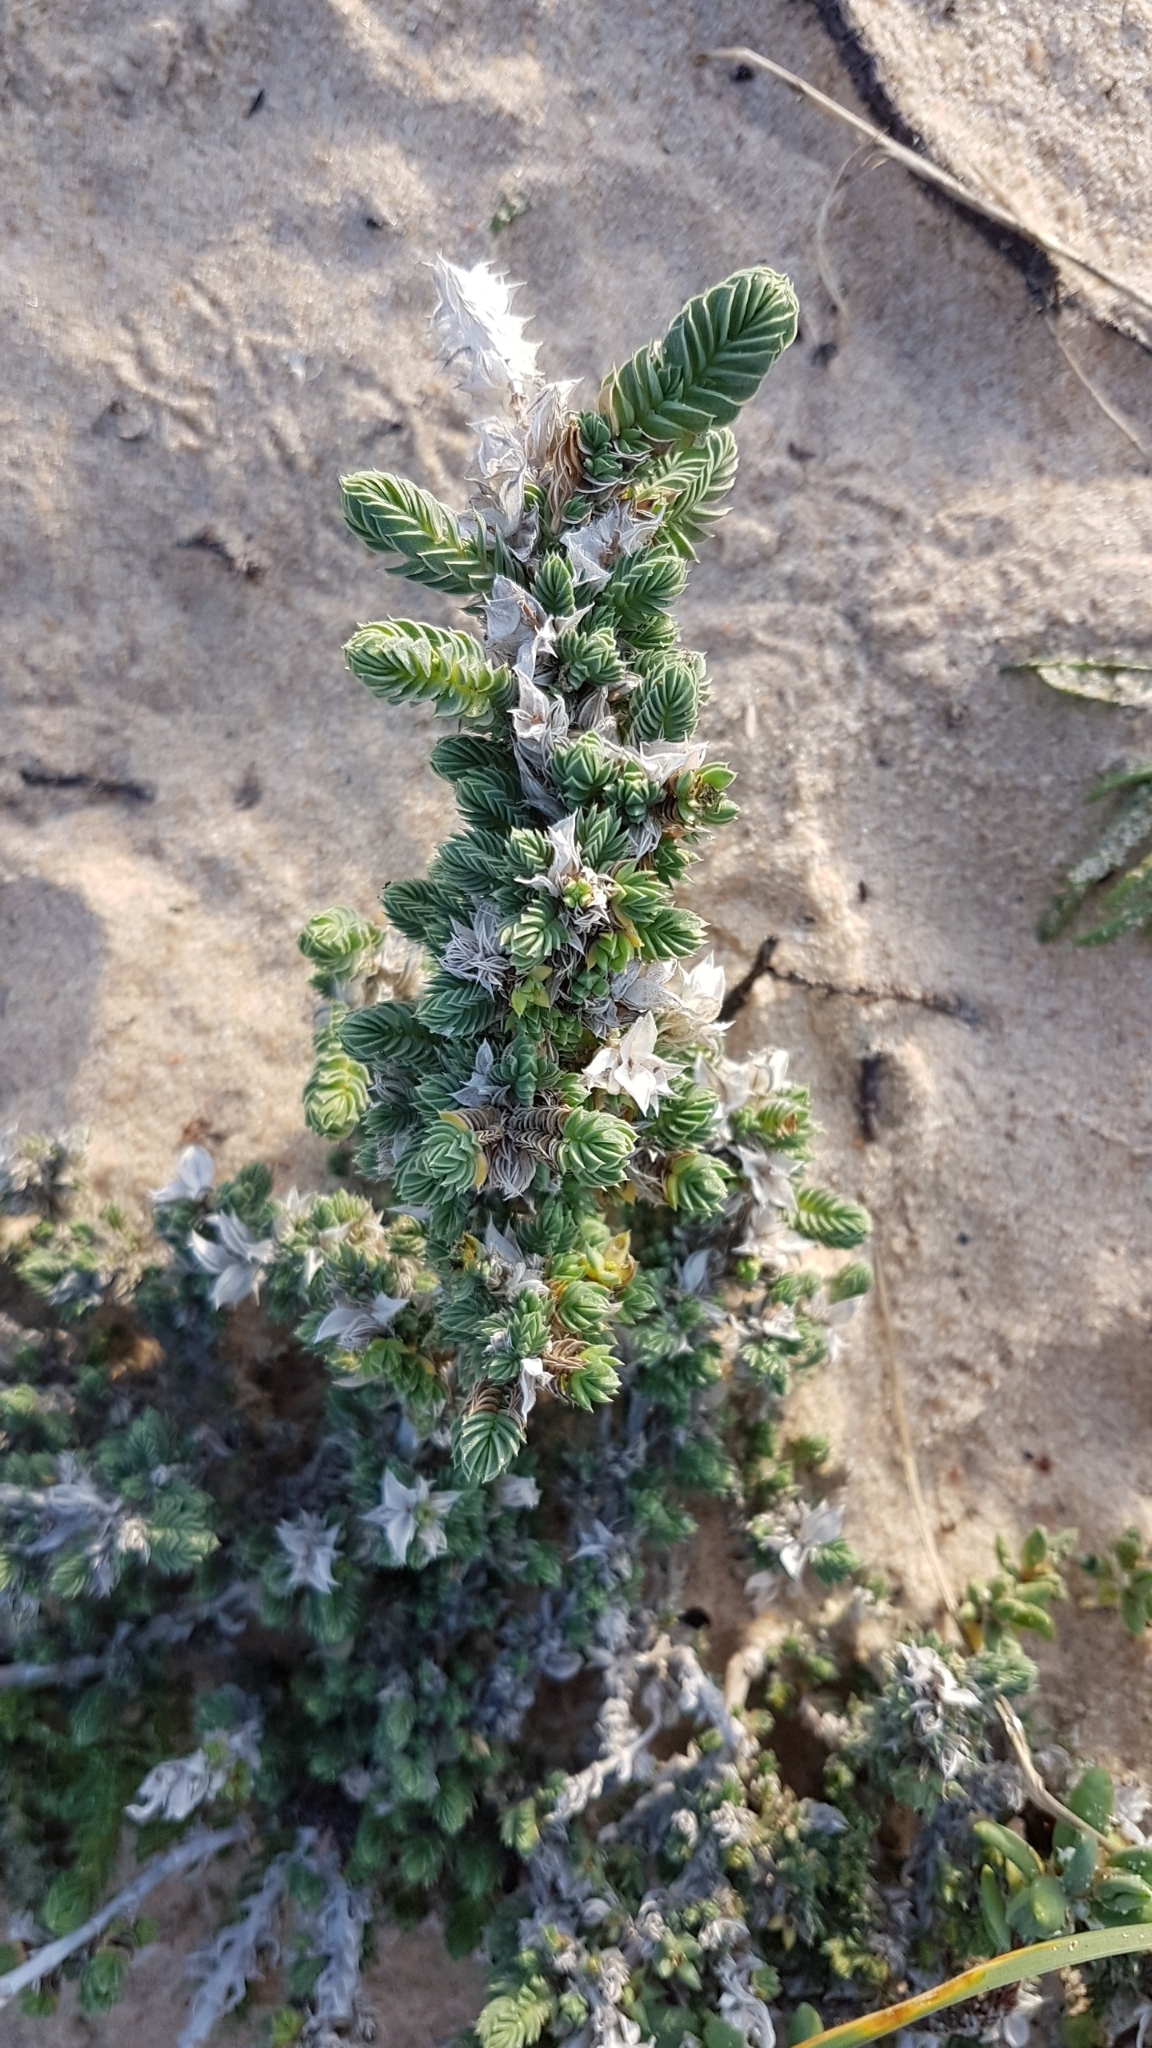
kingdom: Plantae
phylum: Tracheophyta
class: Magnoliopsida
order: Gentianales
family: Rubiaceae
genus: Crucianella
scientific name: Crucianella maritima
